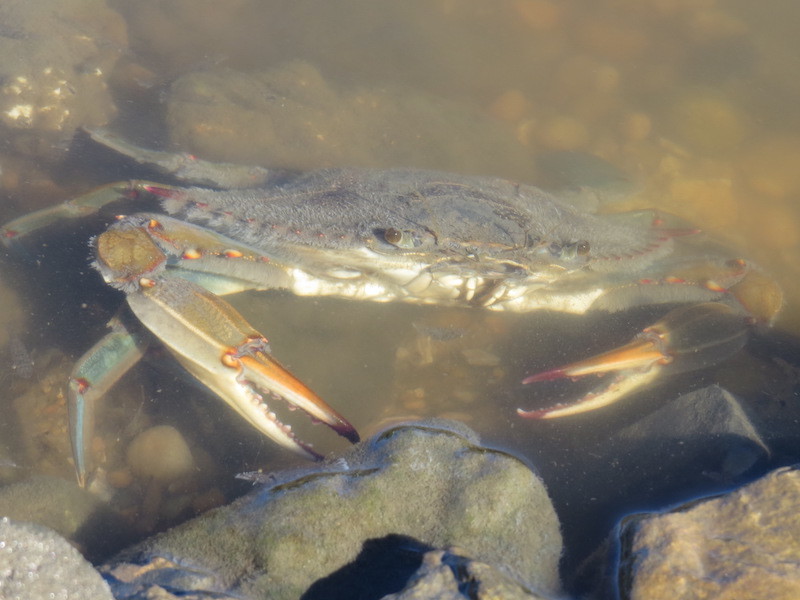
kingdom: Animalia
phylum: Arthropoda
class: Malacostraca
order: Decapoda
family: Portunidae
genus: Callinectes
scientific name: Callinectes sapidus
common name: Blue crab
